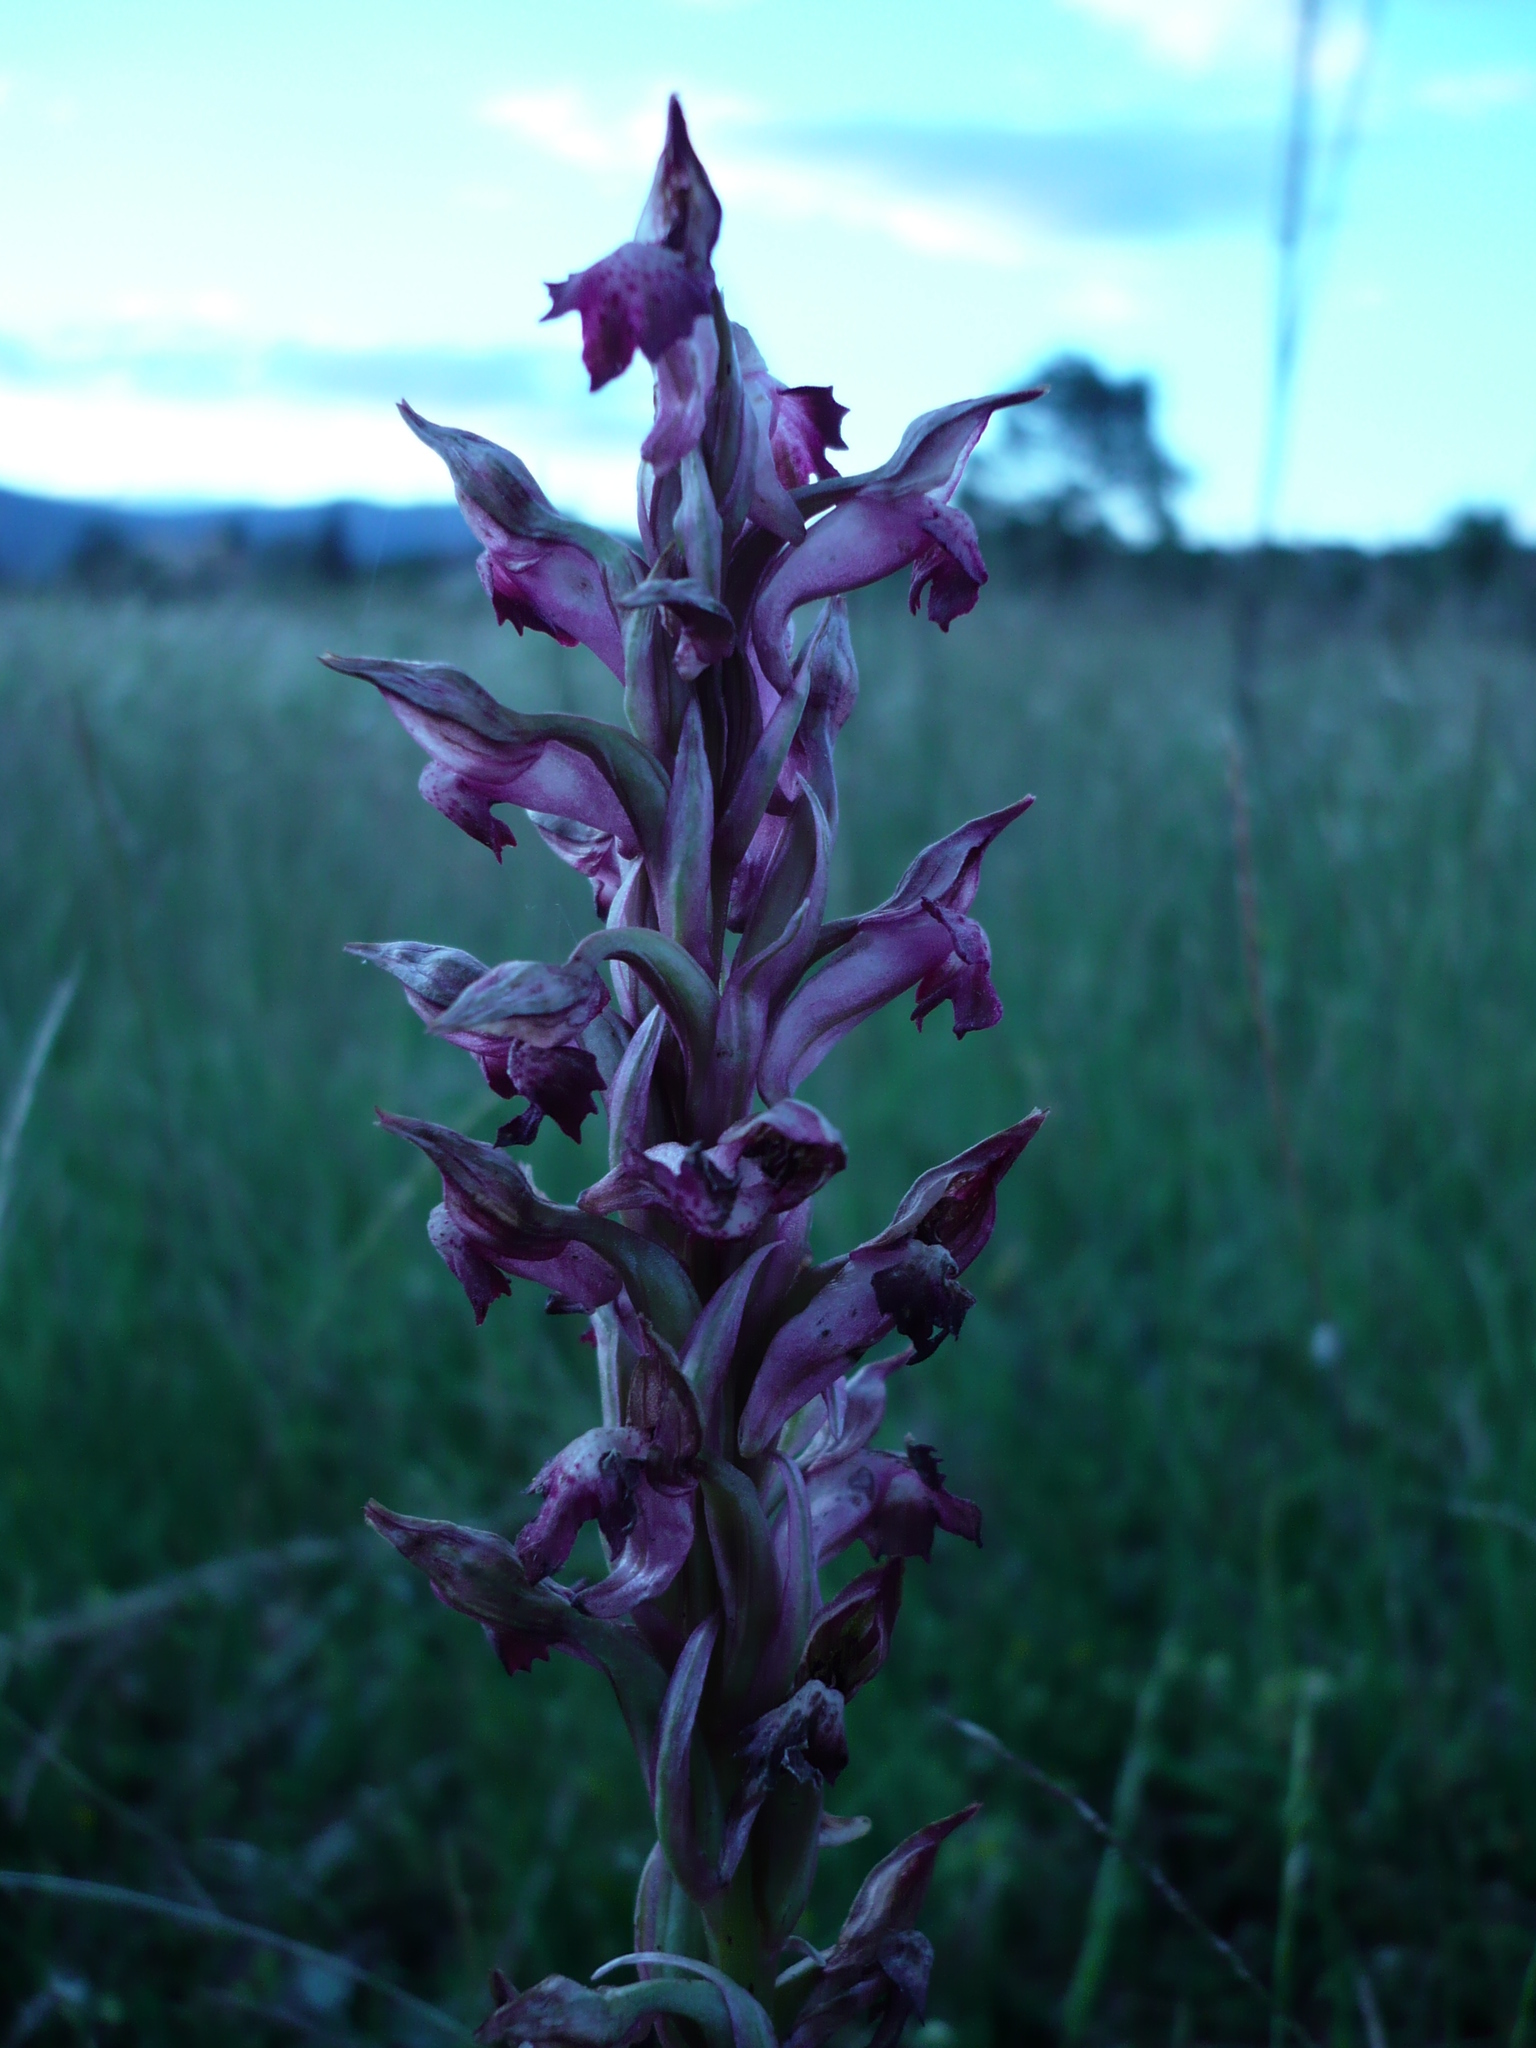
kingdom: Plantae
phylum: Tracheophyta
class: Liliopsida
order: Asparagales
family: Orchidaceae
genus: Anacamptis
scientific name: Anacamptis coriophora
